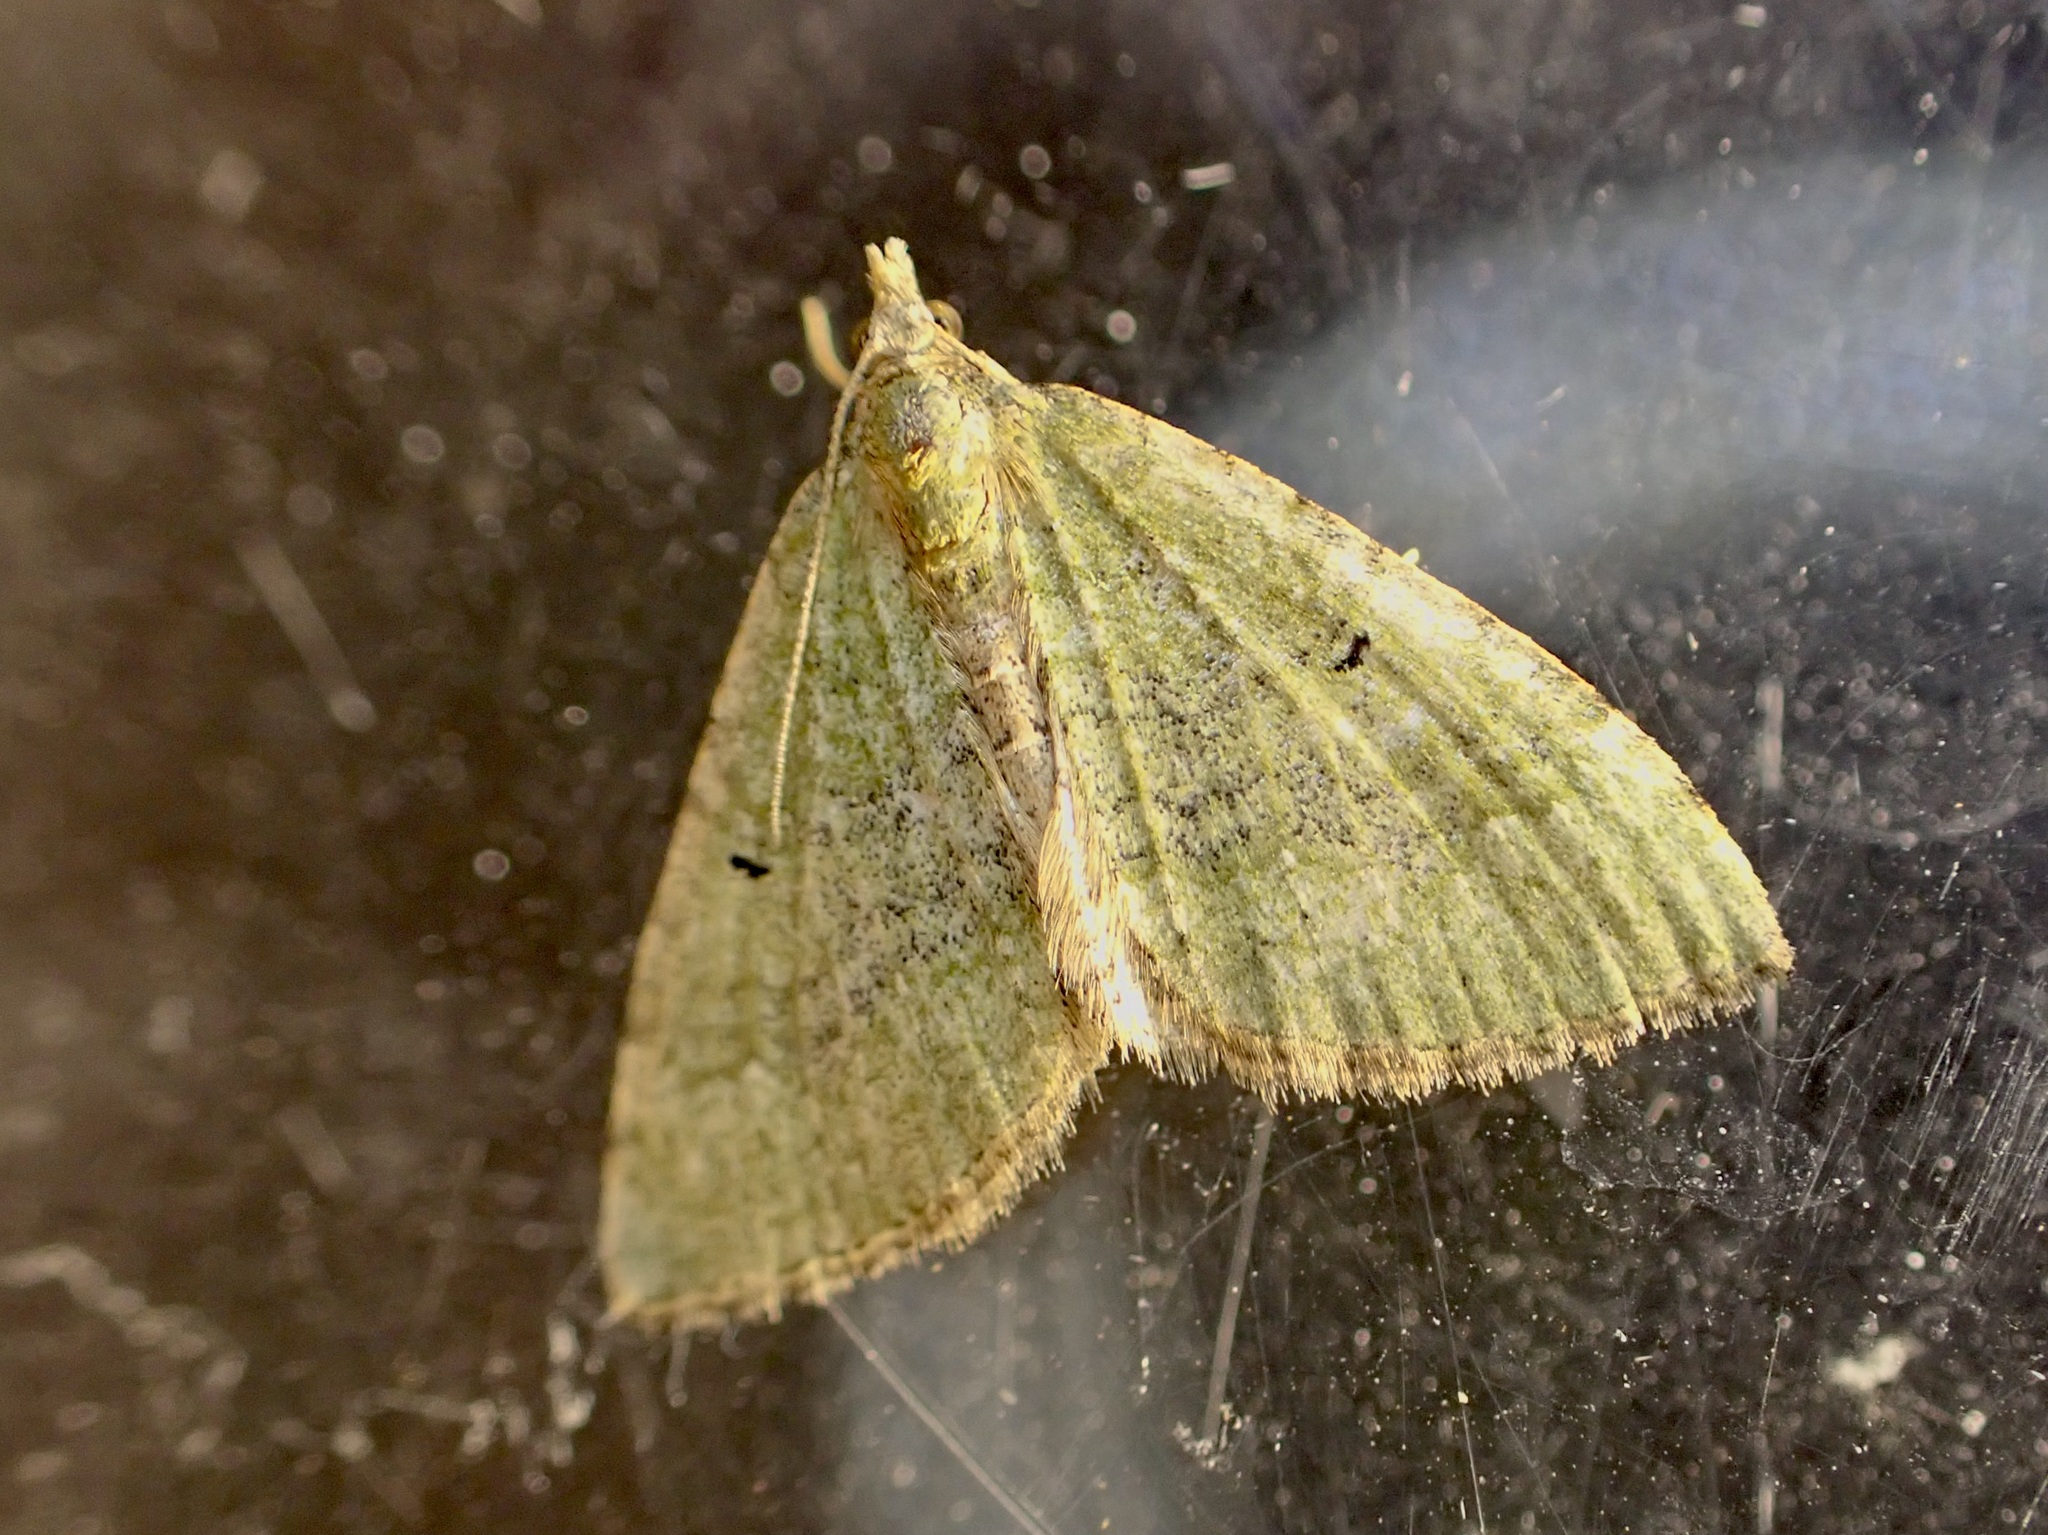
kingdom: Animalia
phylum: Arthropoda
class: Insecta
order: Lepidoptera
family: Geometridae
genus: Epyaxa
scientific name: Epyaxa rosearia
